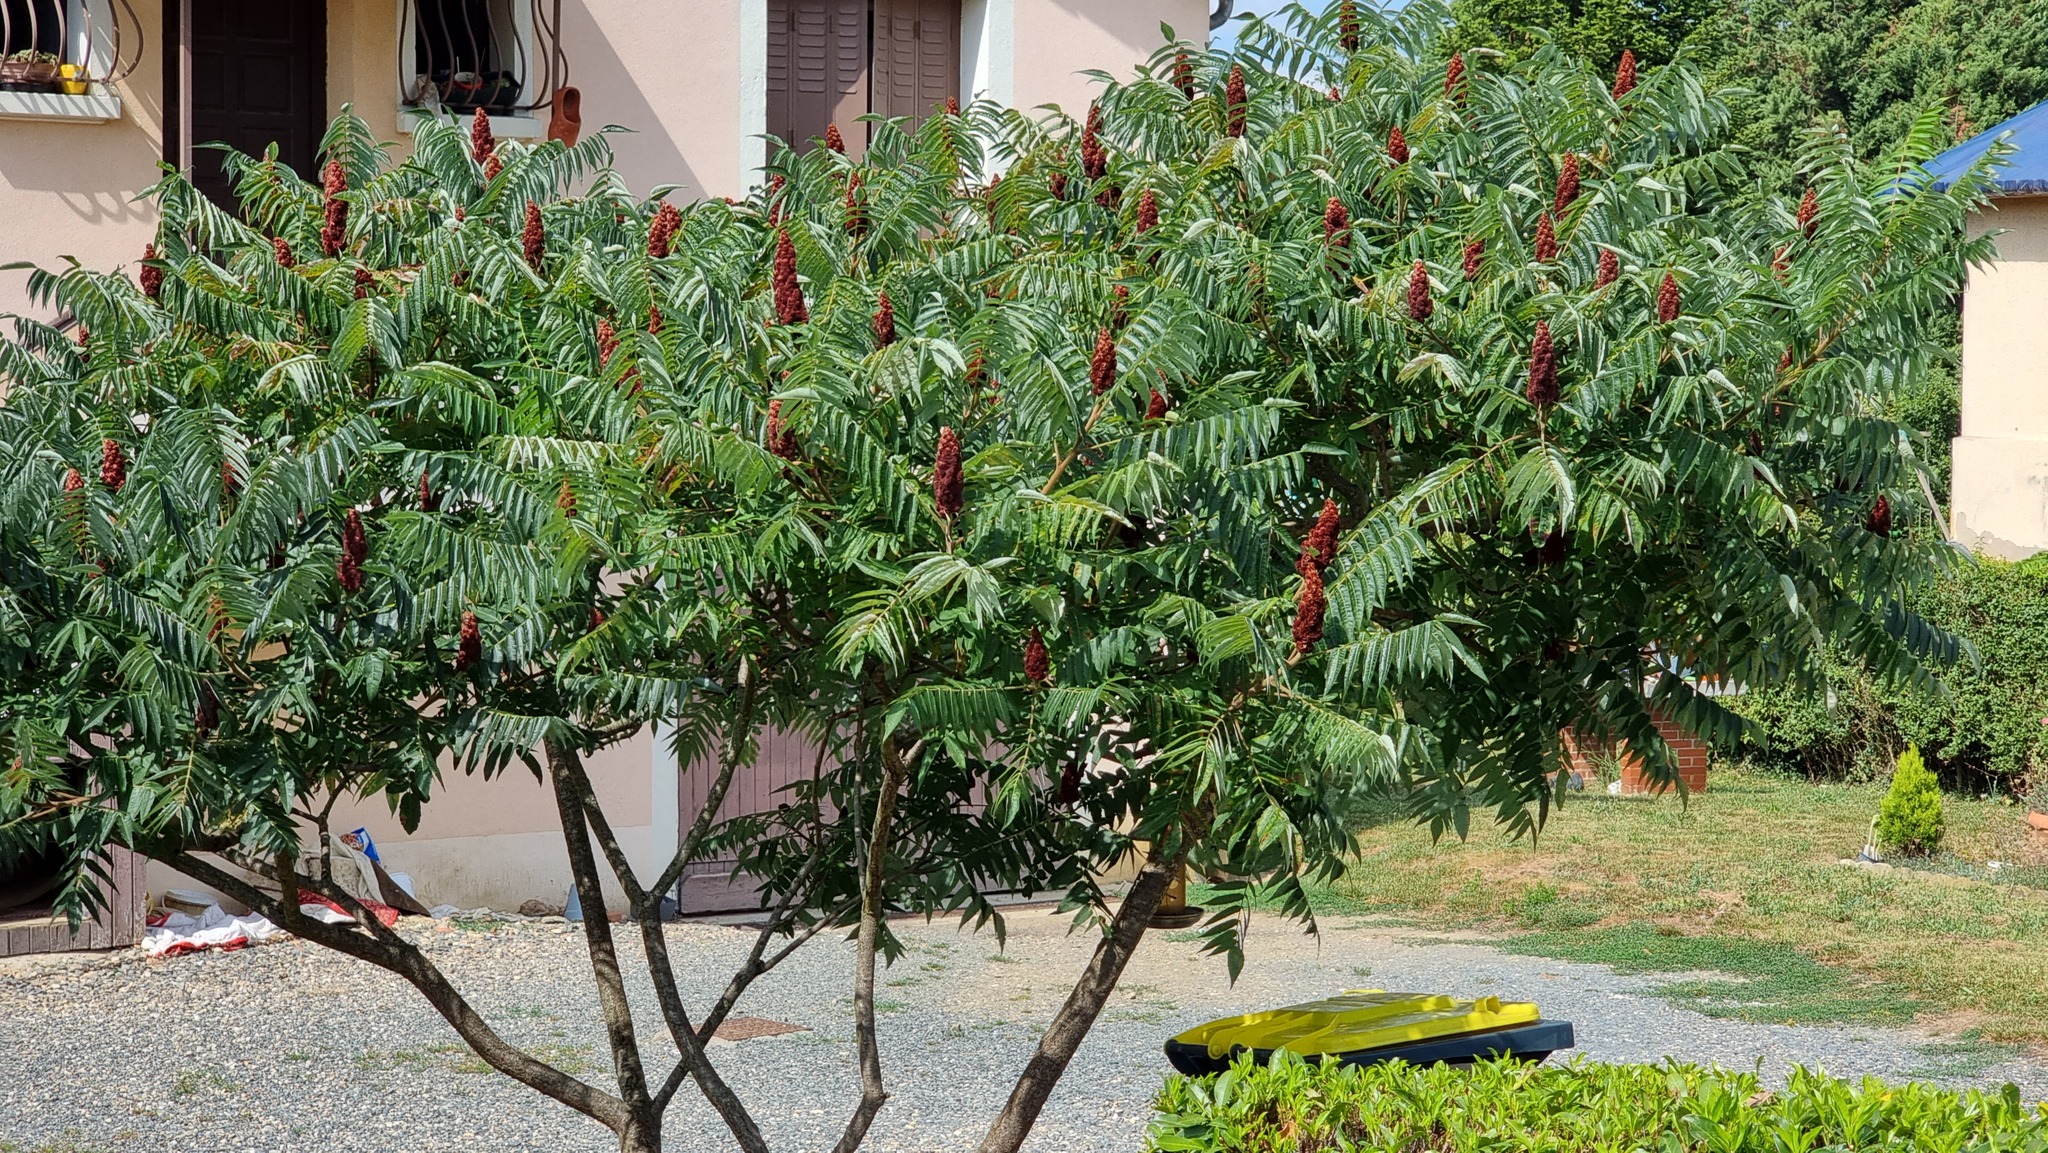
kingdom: Plantae
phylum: Tracheophyta
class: Magnoliopsida
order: Sapindales
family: Anacardiaceae
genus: Rhus
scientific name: Rhus typhina
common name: Staghorn sumac
